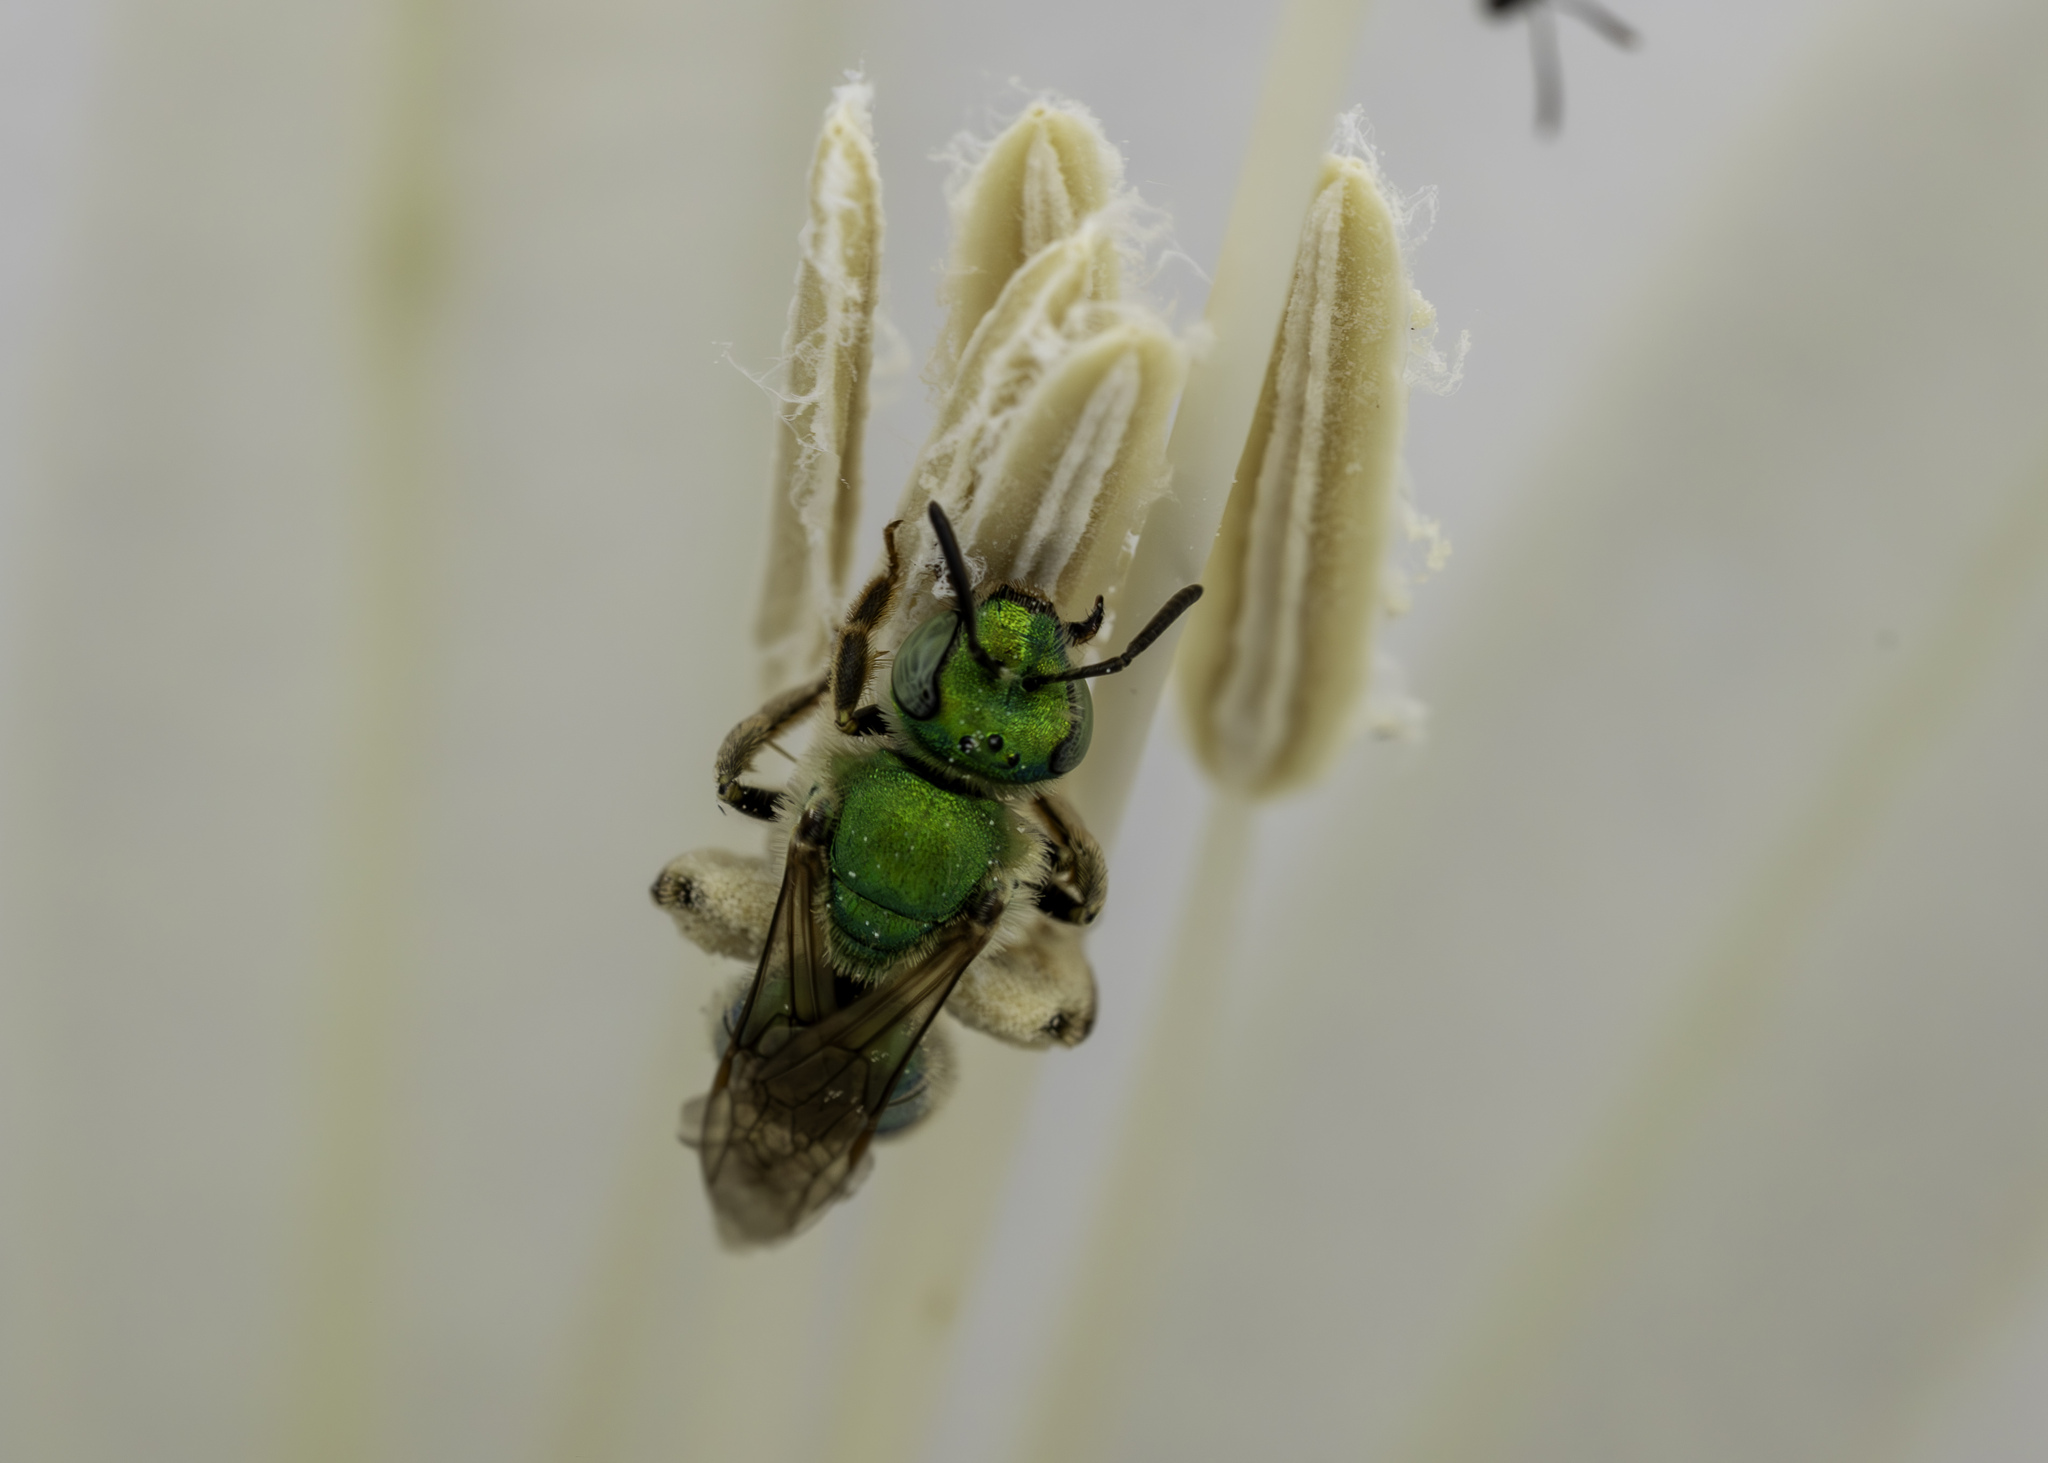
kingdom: Animalia
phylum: Arthropoda
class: Insecta
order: Hymenoptera
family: Halictidae
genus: Agapostemon
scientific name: Agapostemon texanus
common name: Texas striped sweat bee
